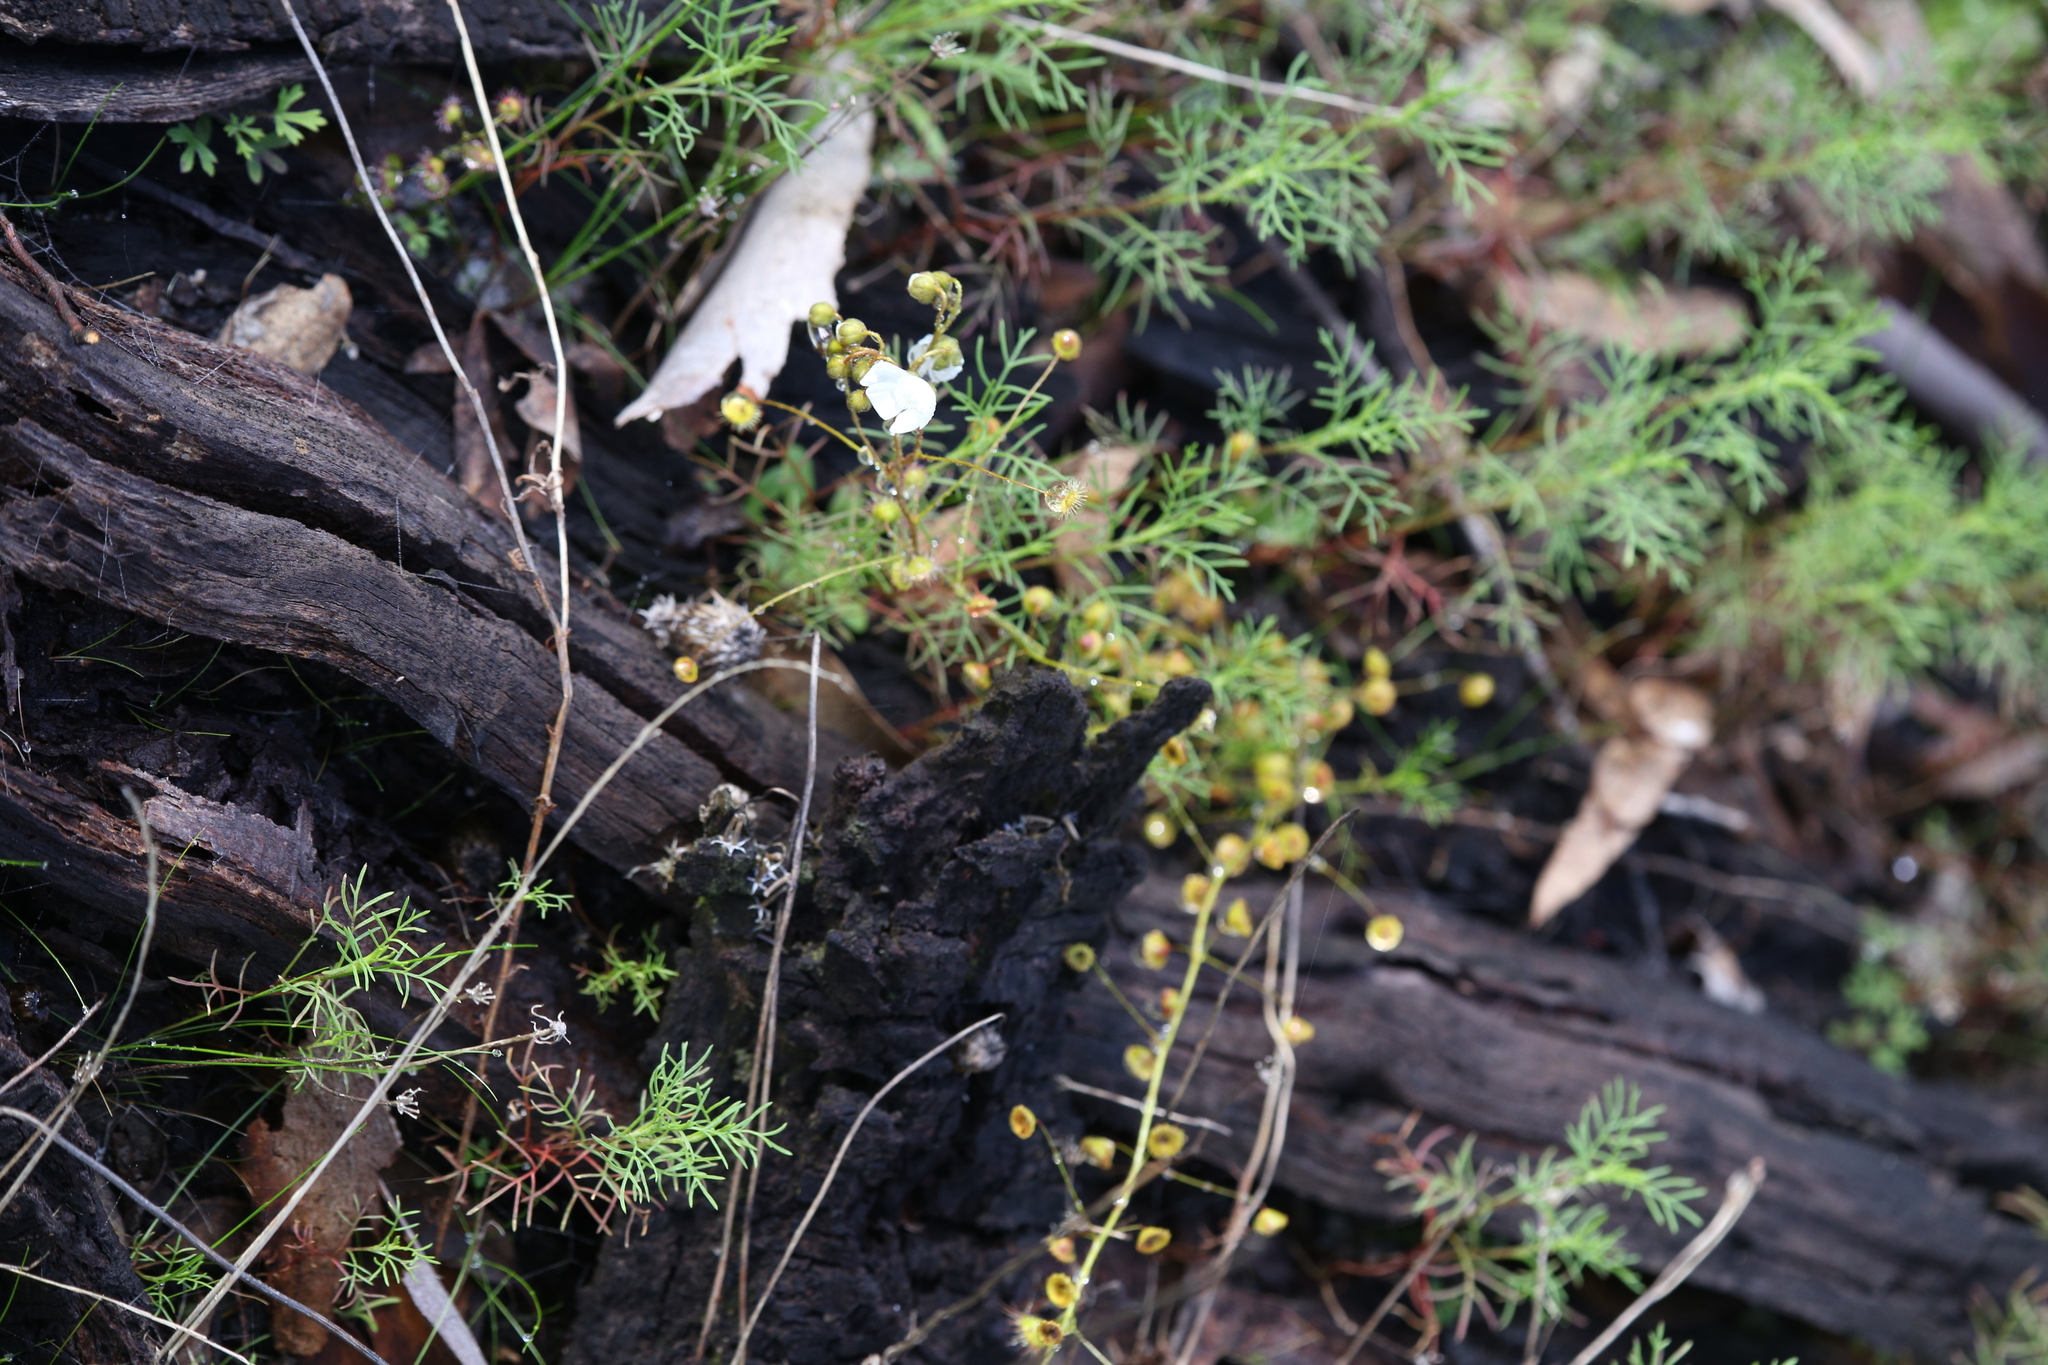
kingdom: Plantae
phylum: Tracheophyta
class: Magnoliopsida
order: Caryophyllales
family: Droseraceae
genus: Drosera
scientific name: Drosera macrantha
